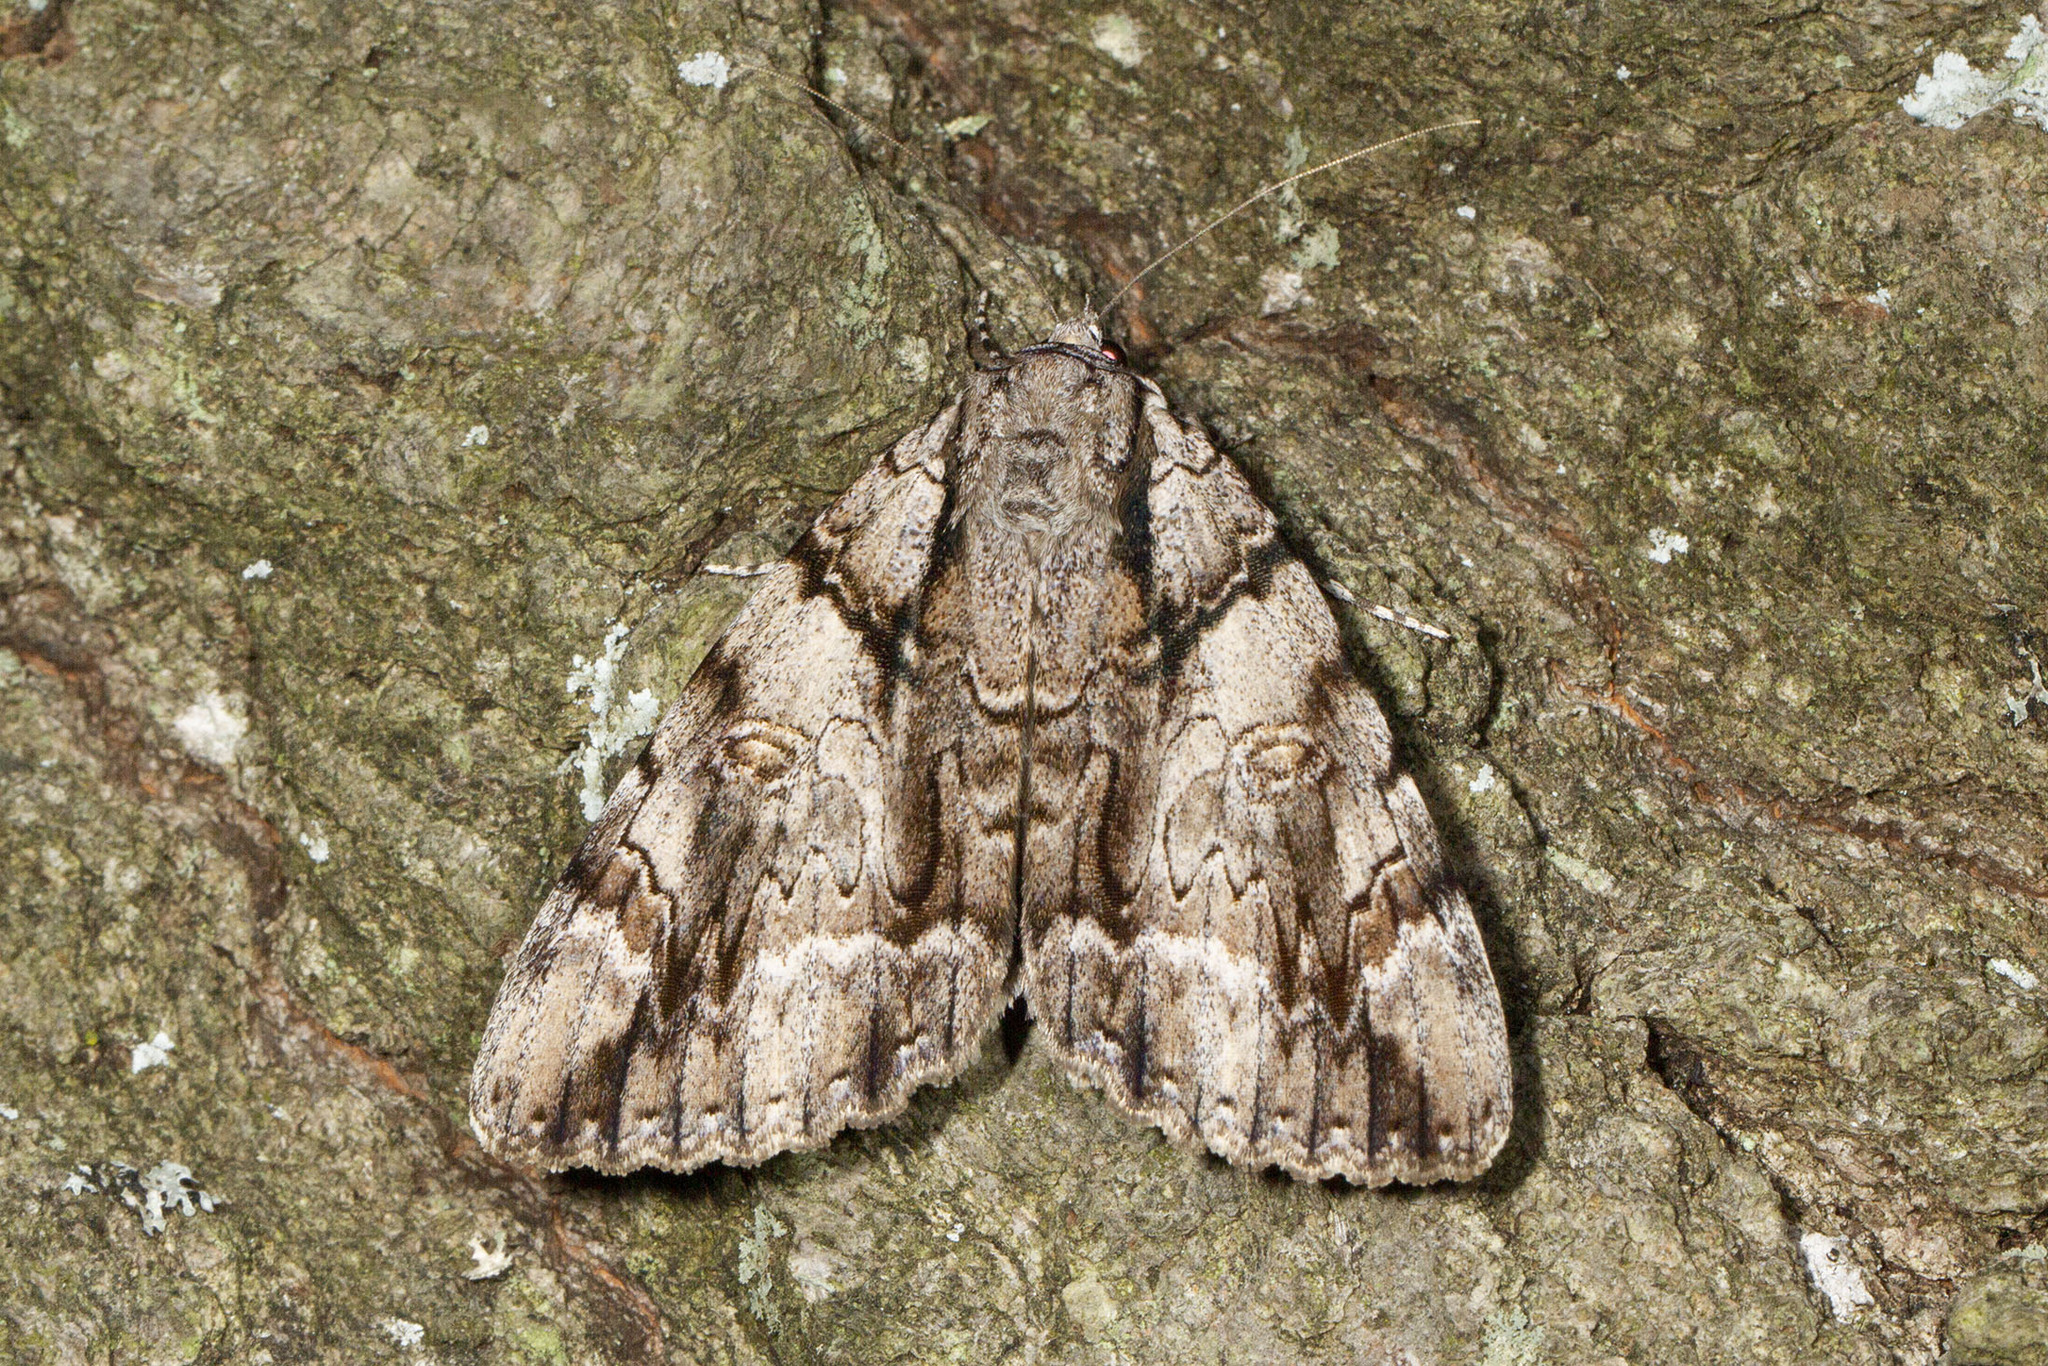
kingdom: Animalia
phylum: Arthropoda
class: Insecta
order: Lepidoptera
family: Erebidae
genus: Catocala
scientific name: Catocala vidua
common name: The widow
